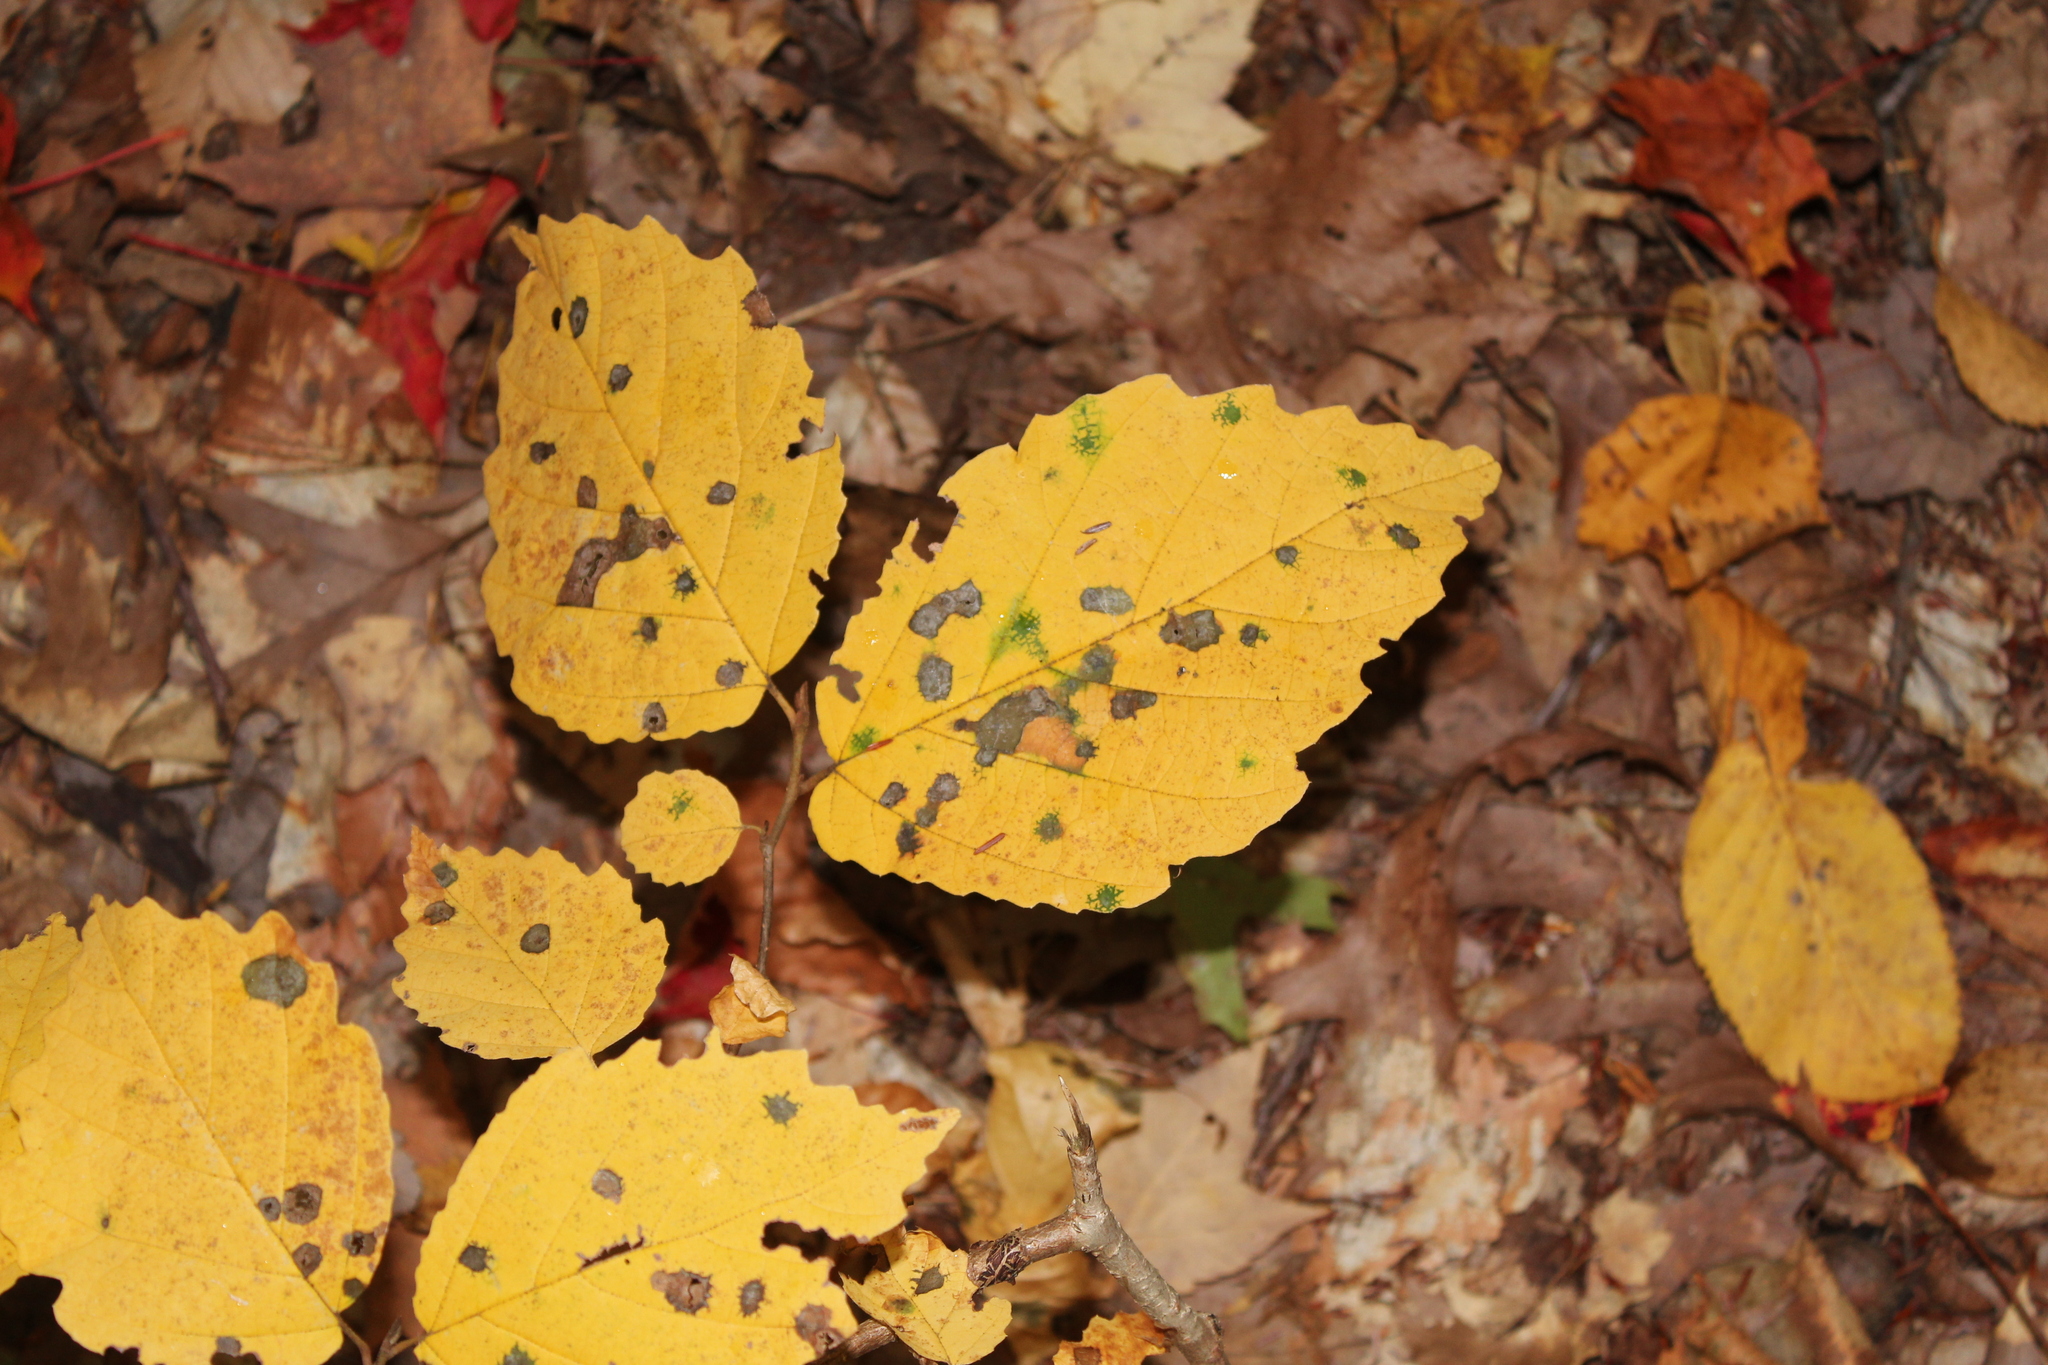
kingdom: Plantae
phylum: Tracheophyta
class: Magnoliopsida
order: Saxifragales
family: Hamamelidaceae
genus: Hamamelis
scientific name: Hamamelis virginiana
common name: Witch-hazel
